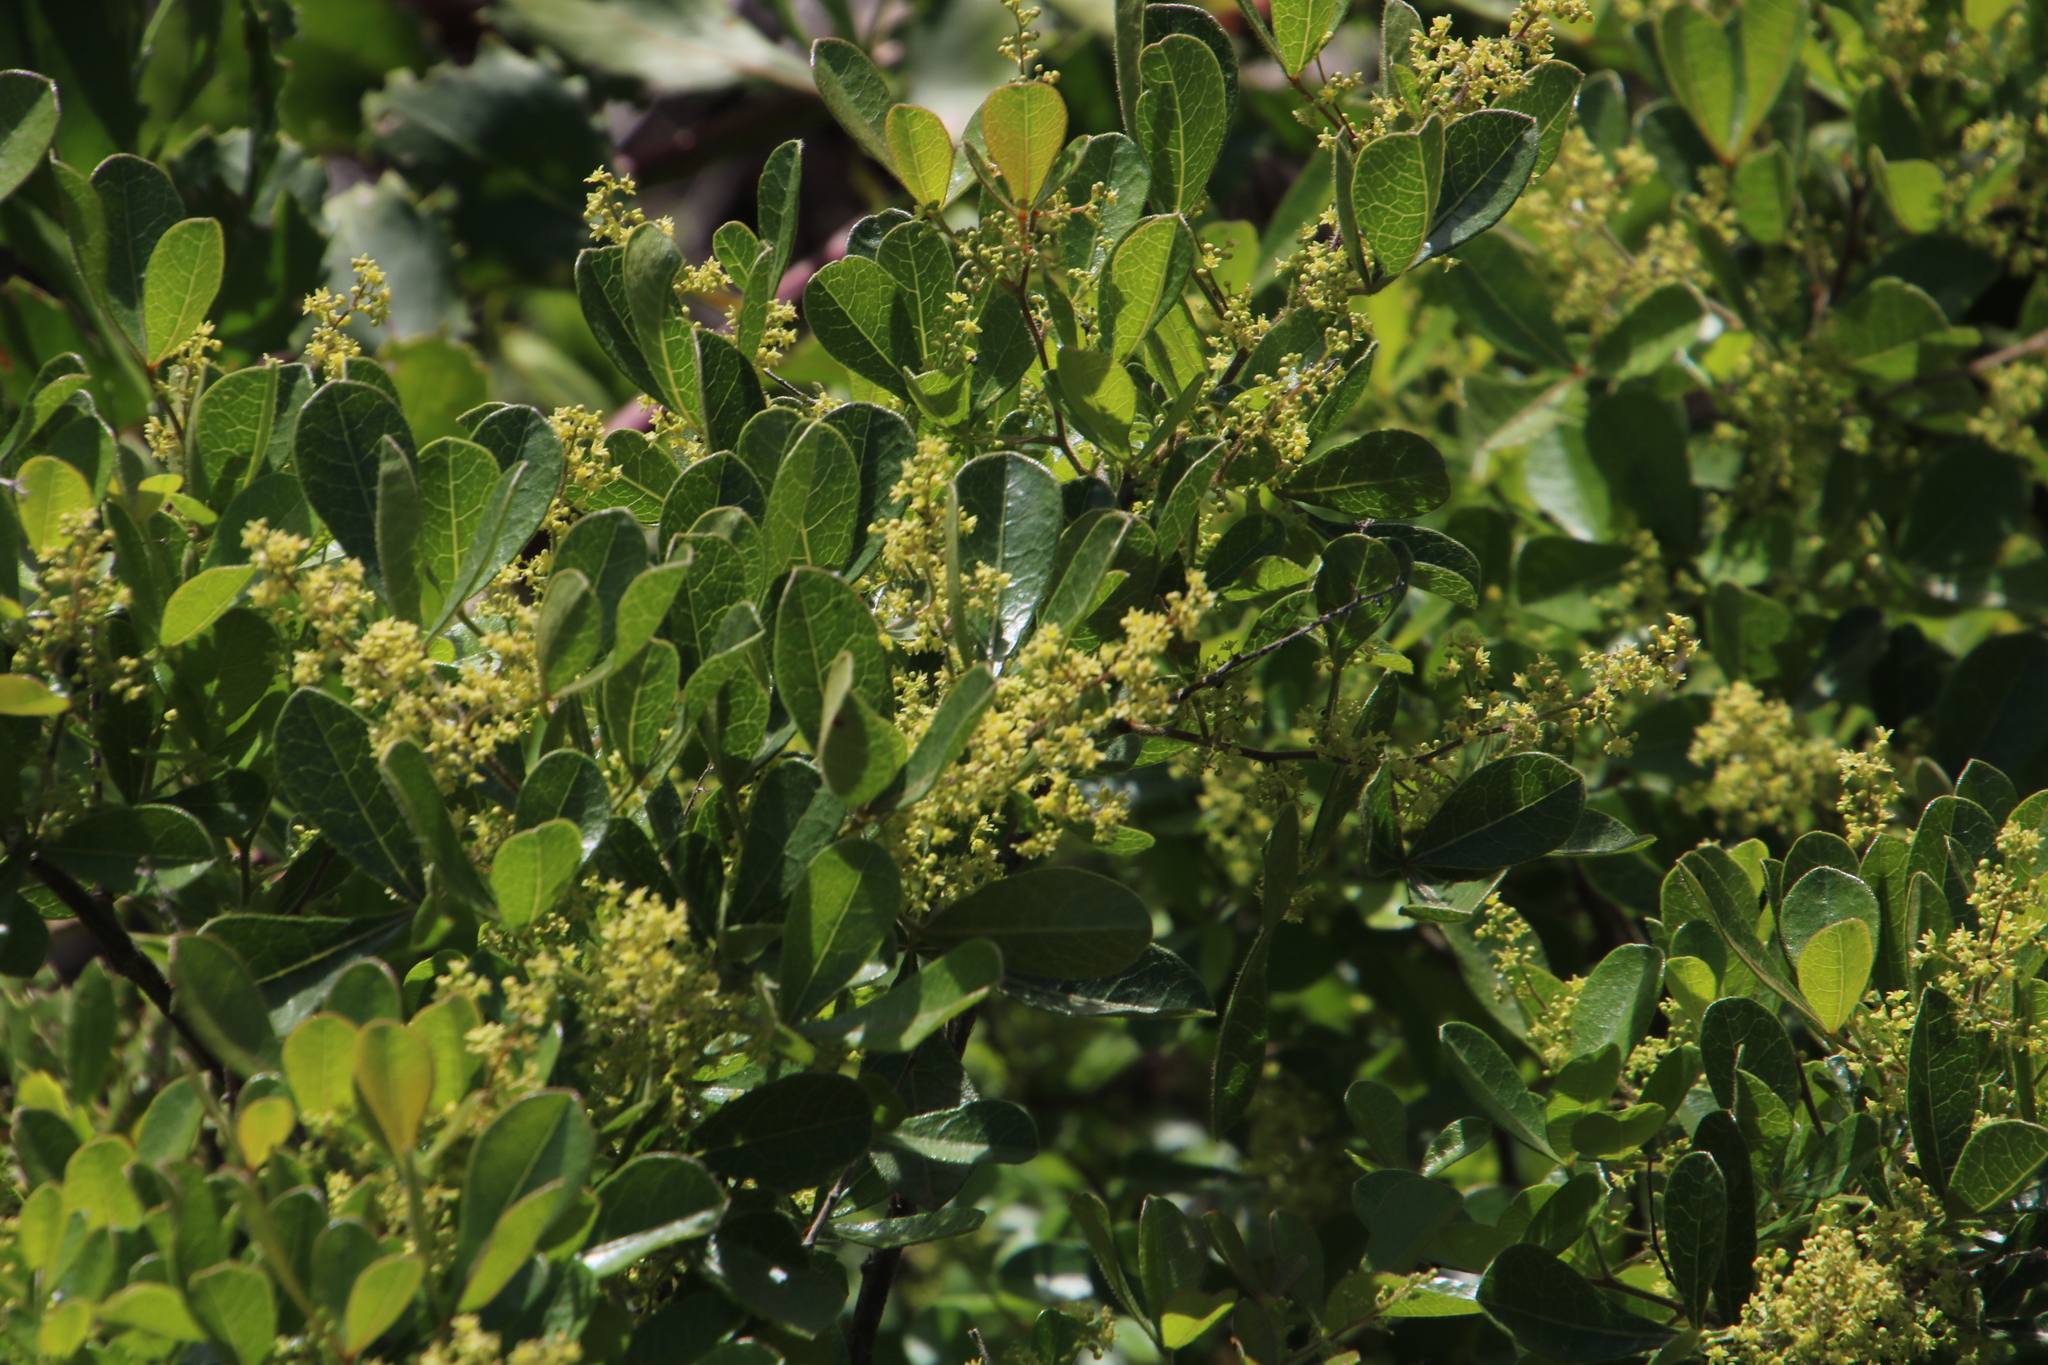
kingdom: Plantae
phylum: Tracheophyta
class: Magnoliopsida
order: Sapindales
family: Anacardiaceae
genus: Searsia
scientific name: Searsia lucida
